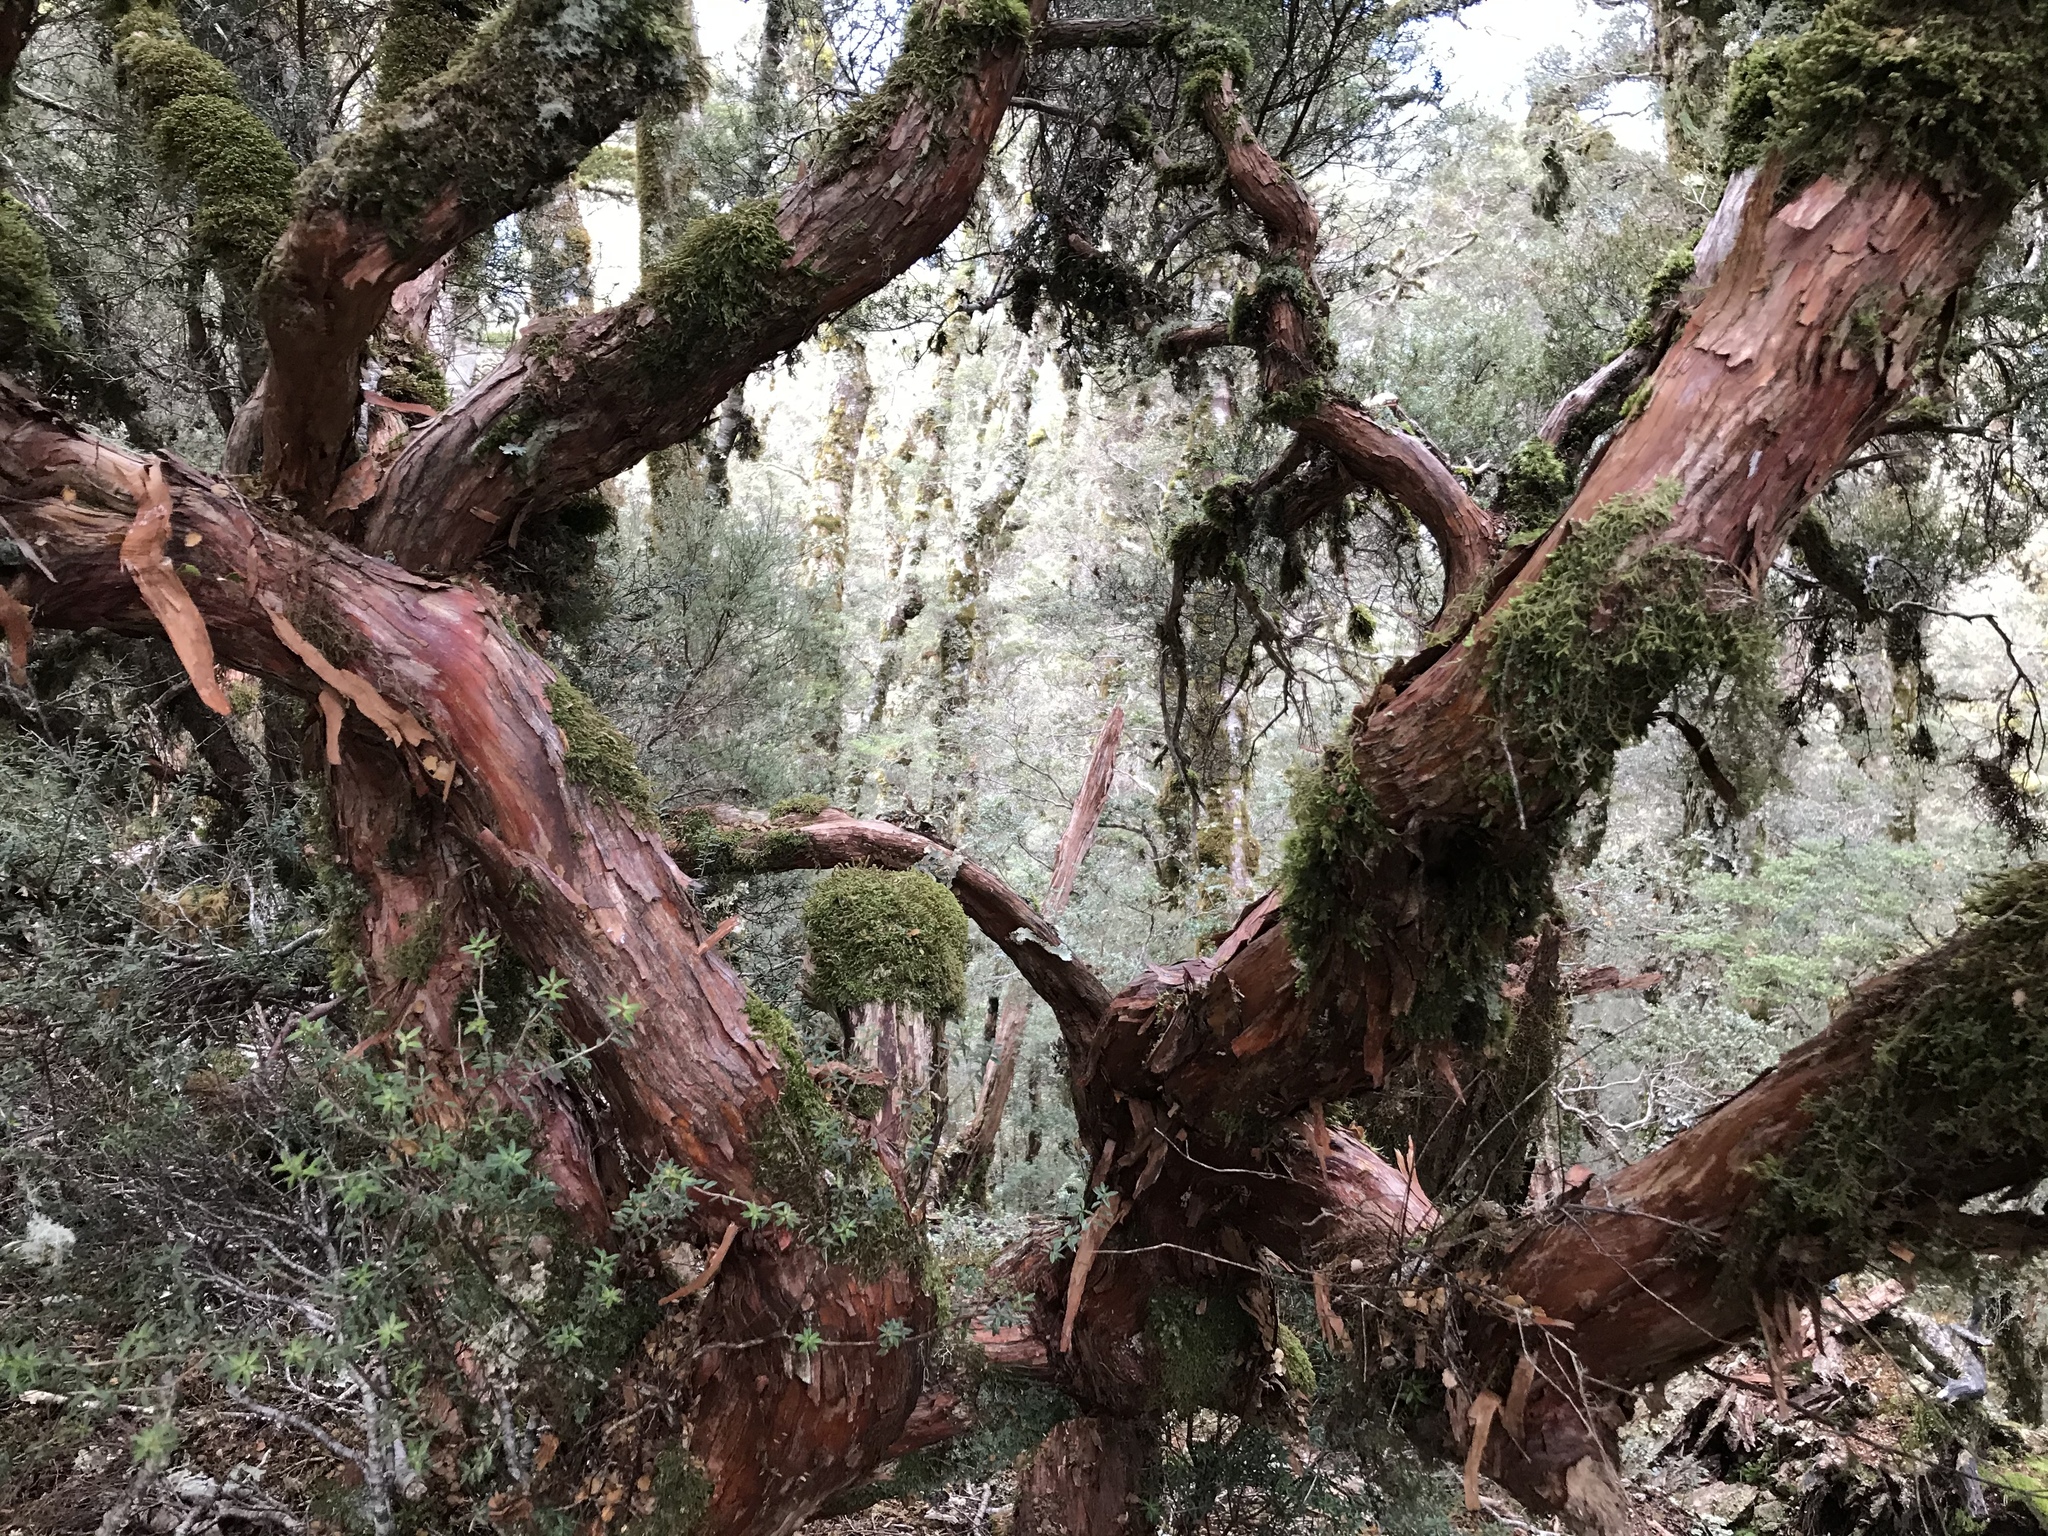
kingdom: Plantae
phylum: Tracheophyta
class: Magnoliopsida
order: Ericales
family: Ericaceae
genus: Archeria
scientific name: Archeria traversii
